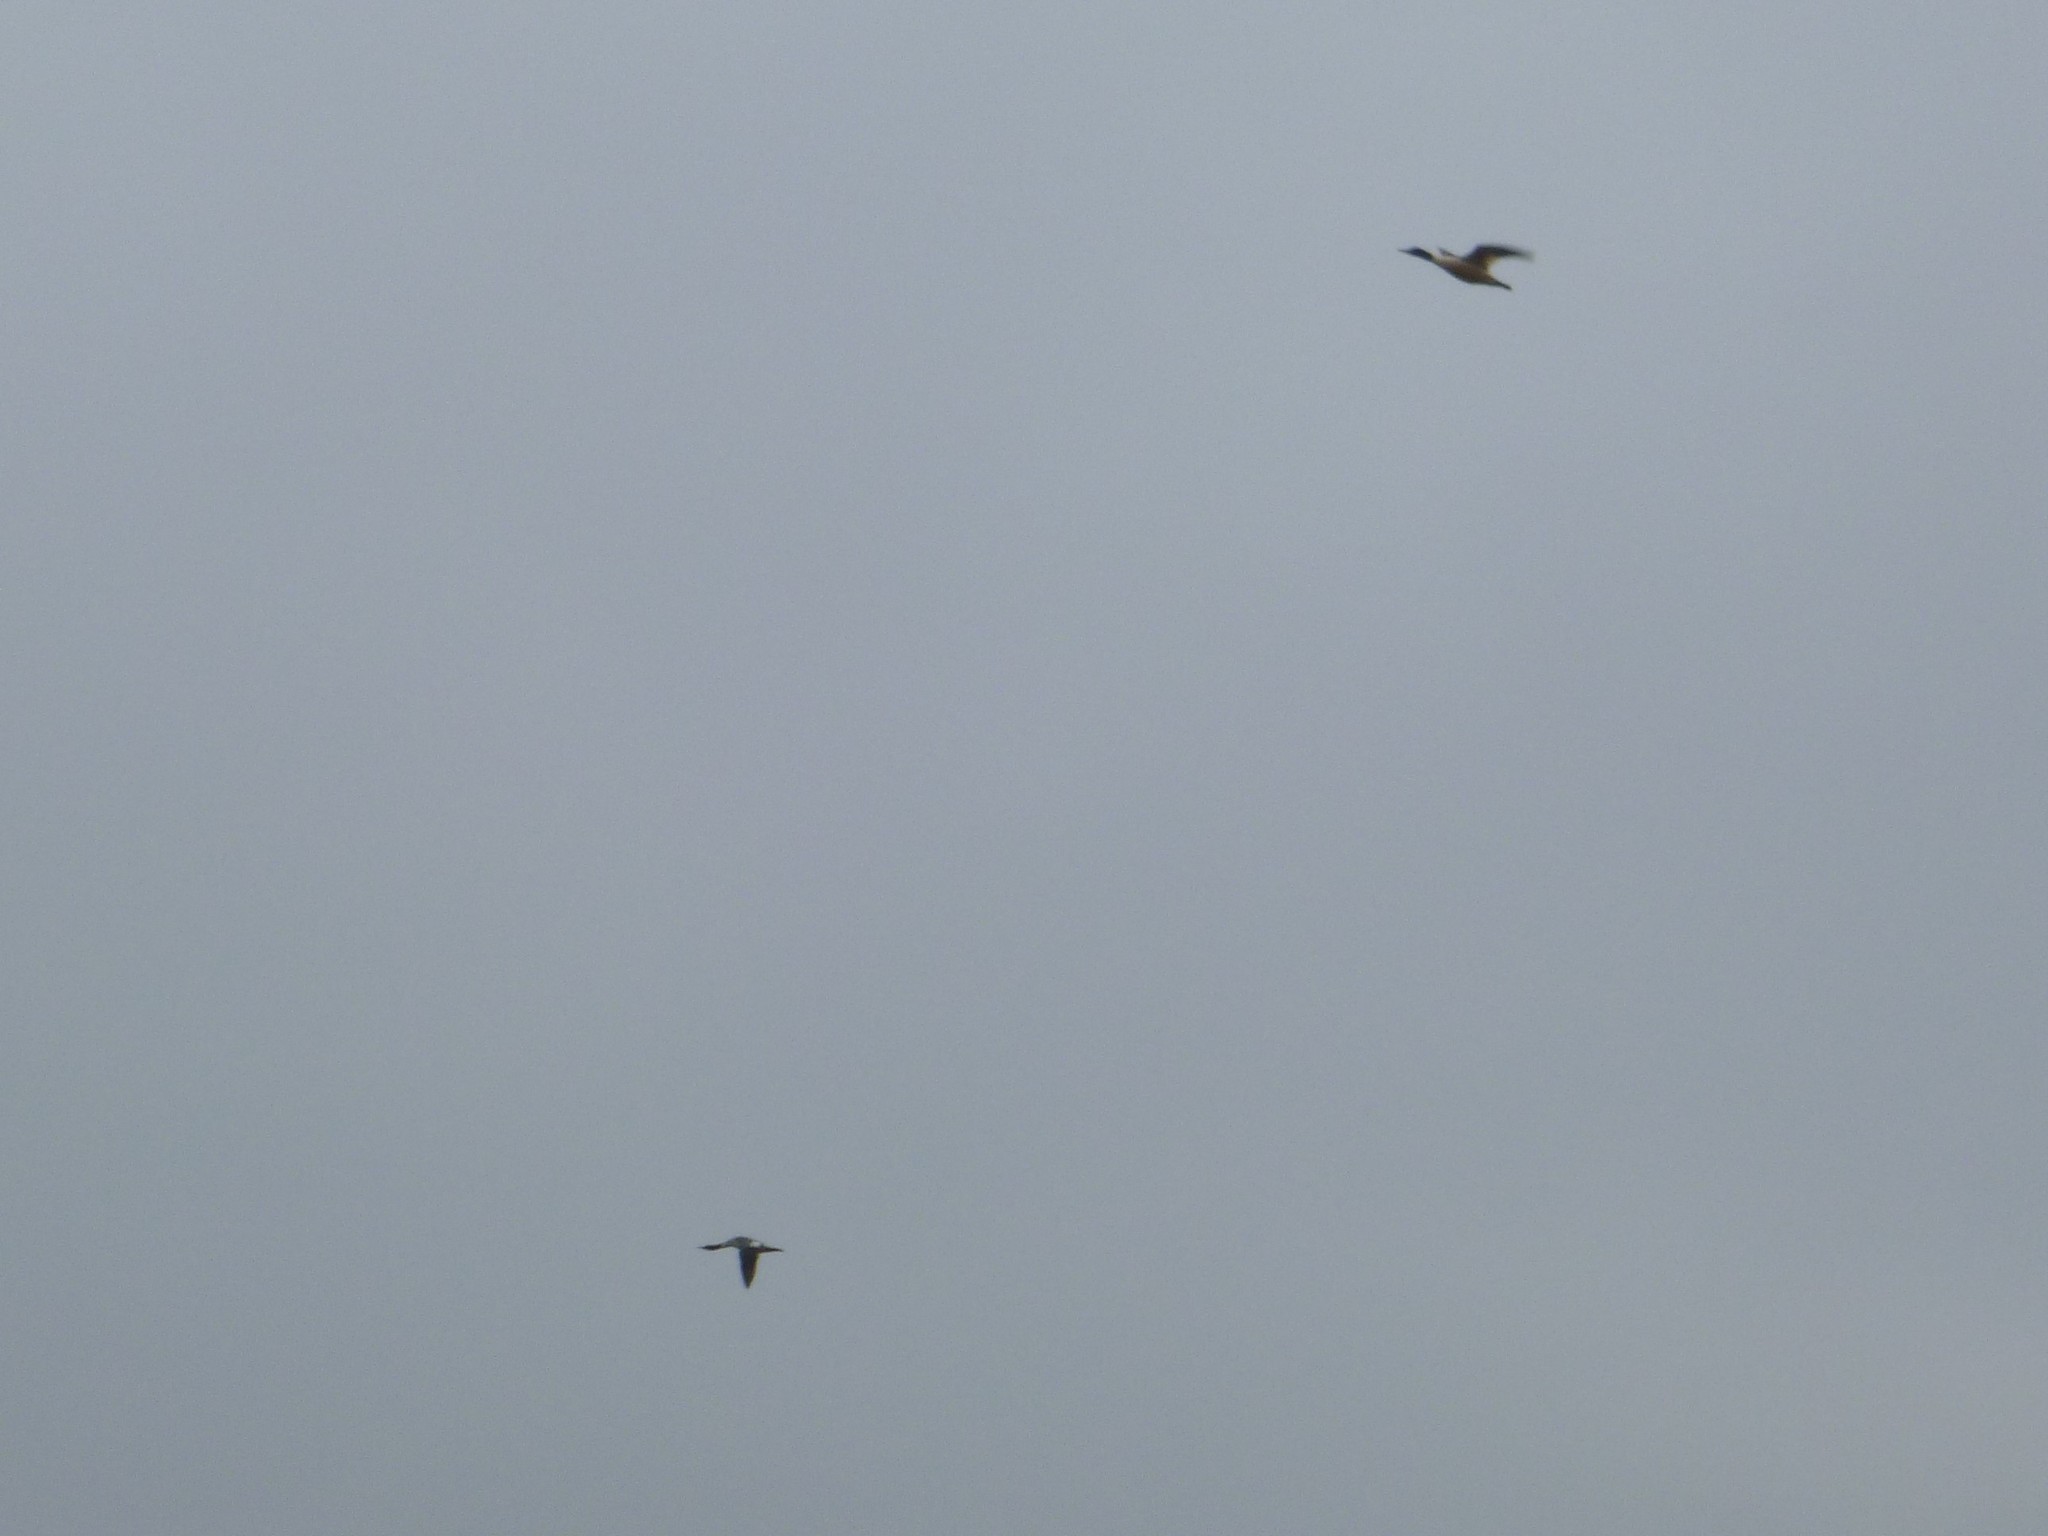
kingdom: Animalia
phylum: Chordata
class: Aves
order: Anseriformes
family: Anatidae
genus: Mergus
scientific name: Mergus merganser
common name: Common merganser
